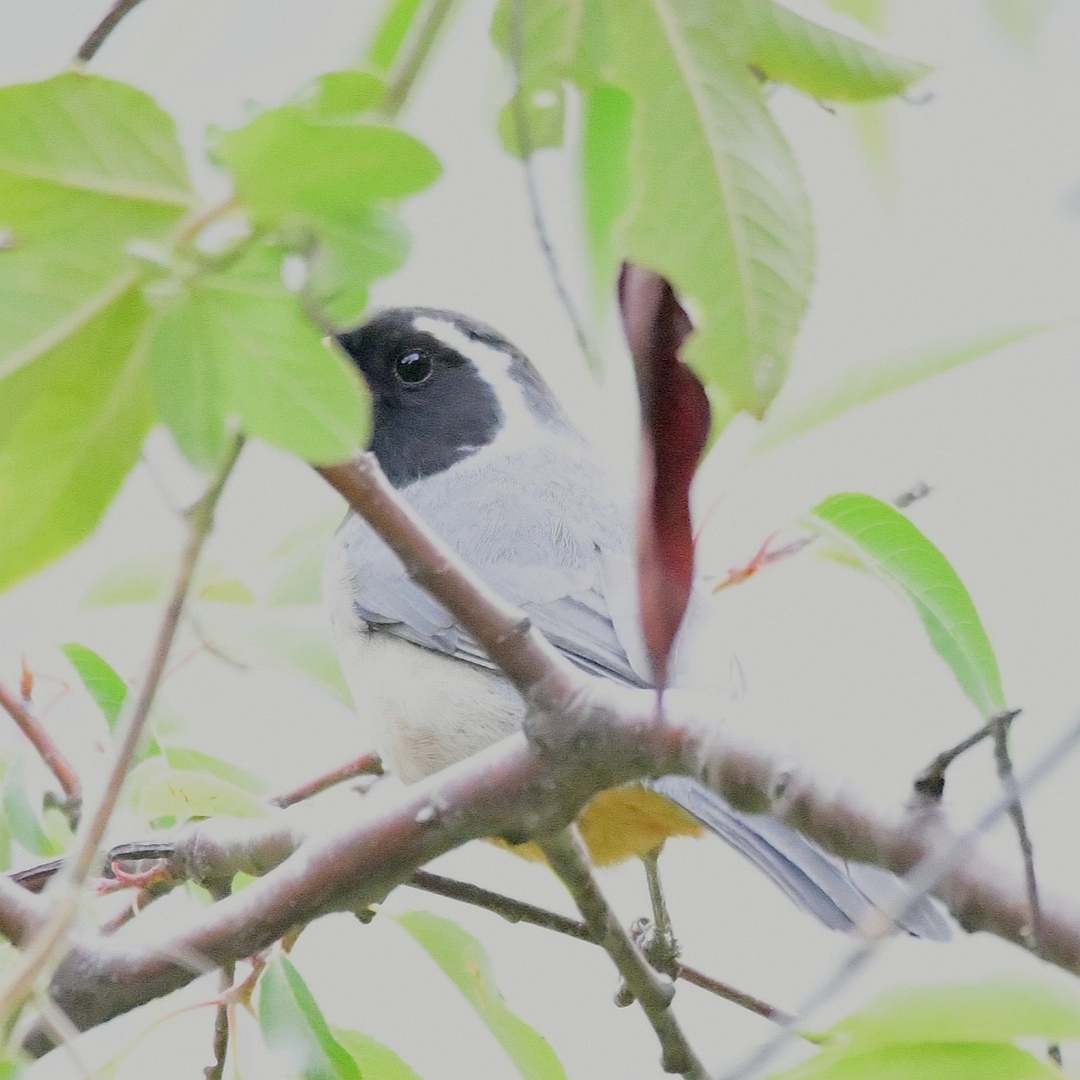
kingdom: Animalia
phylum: Chordata
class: Aves
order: Passeriformes
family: Thraupidae
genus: Saltator
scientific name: Saltator aurantiirostris
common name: Golden-billed saltator
